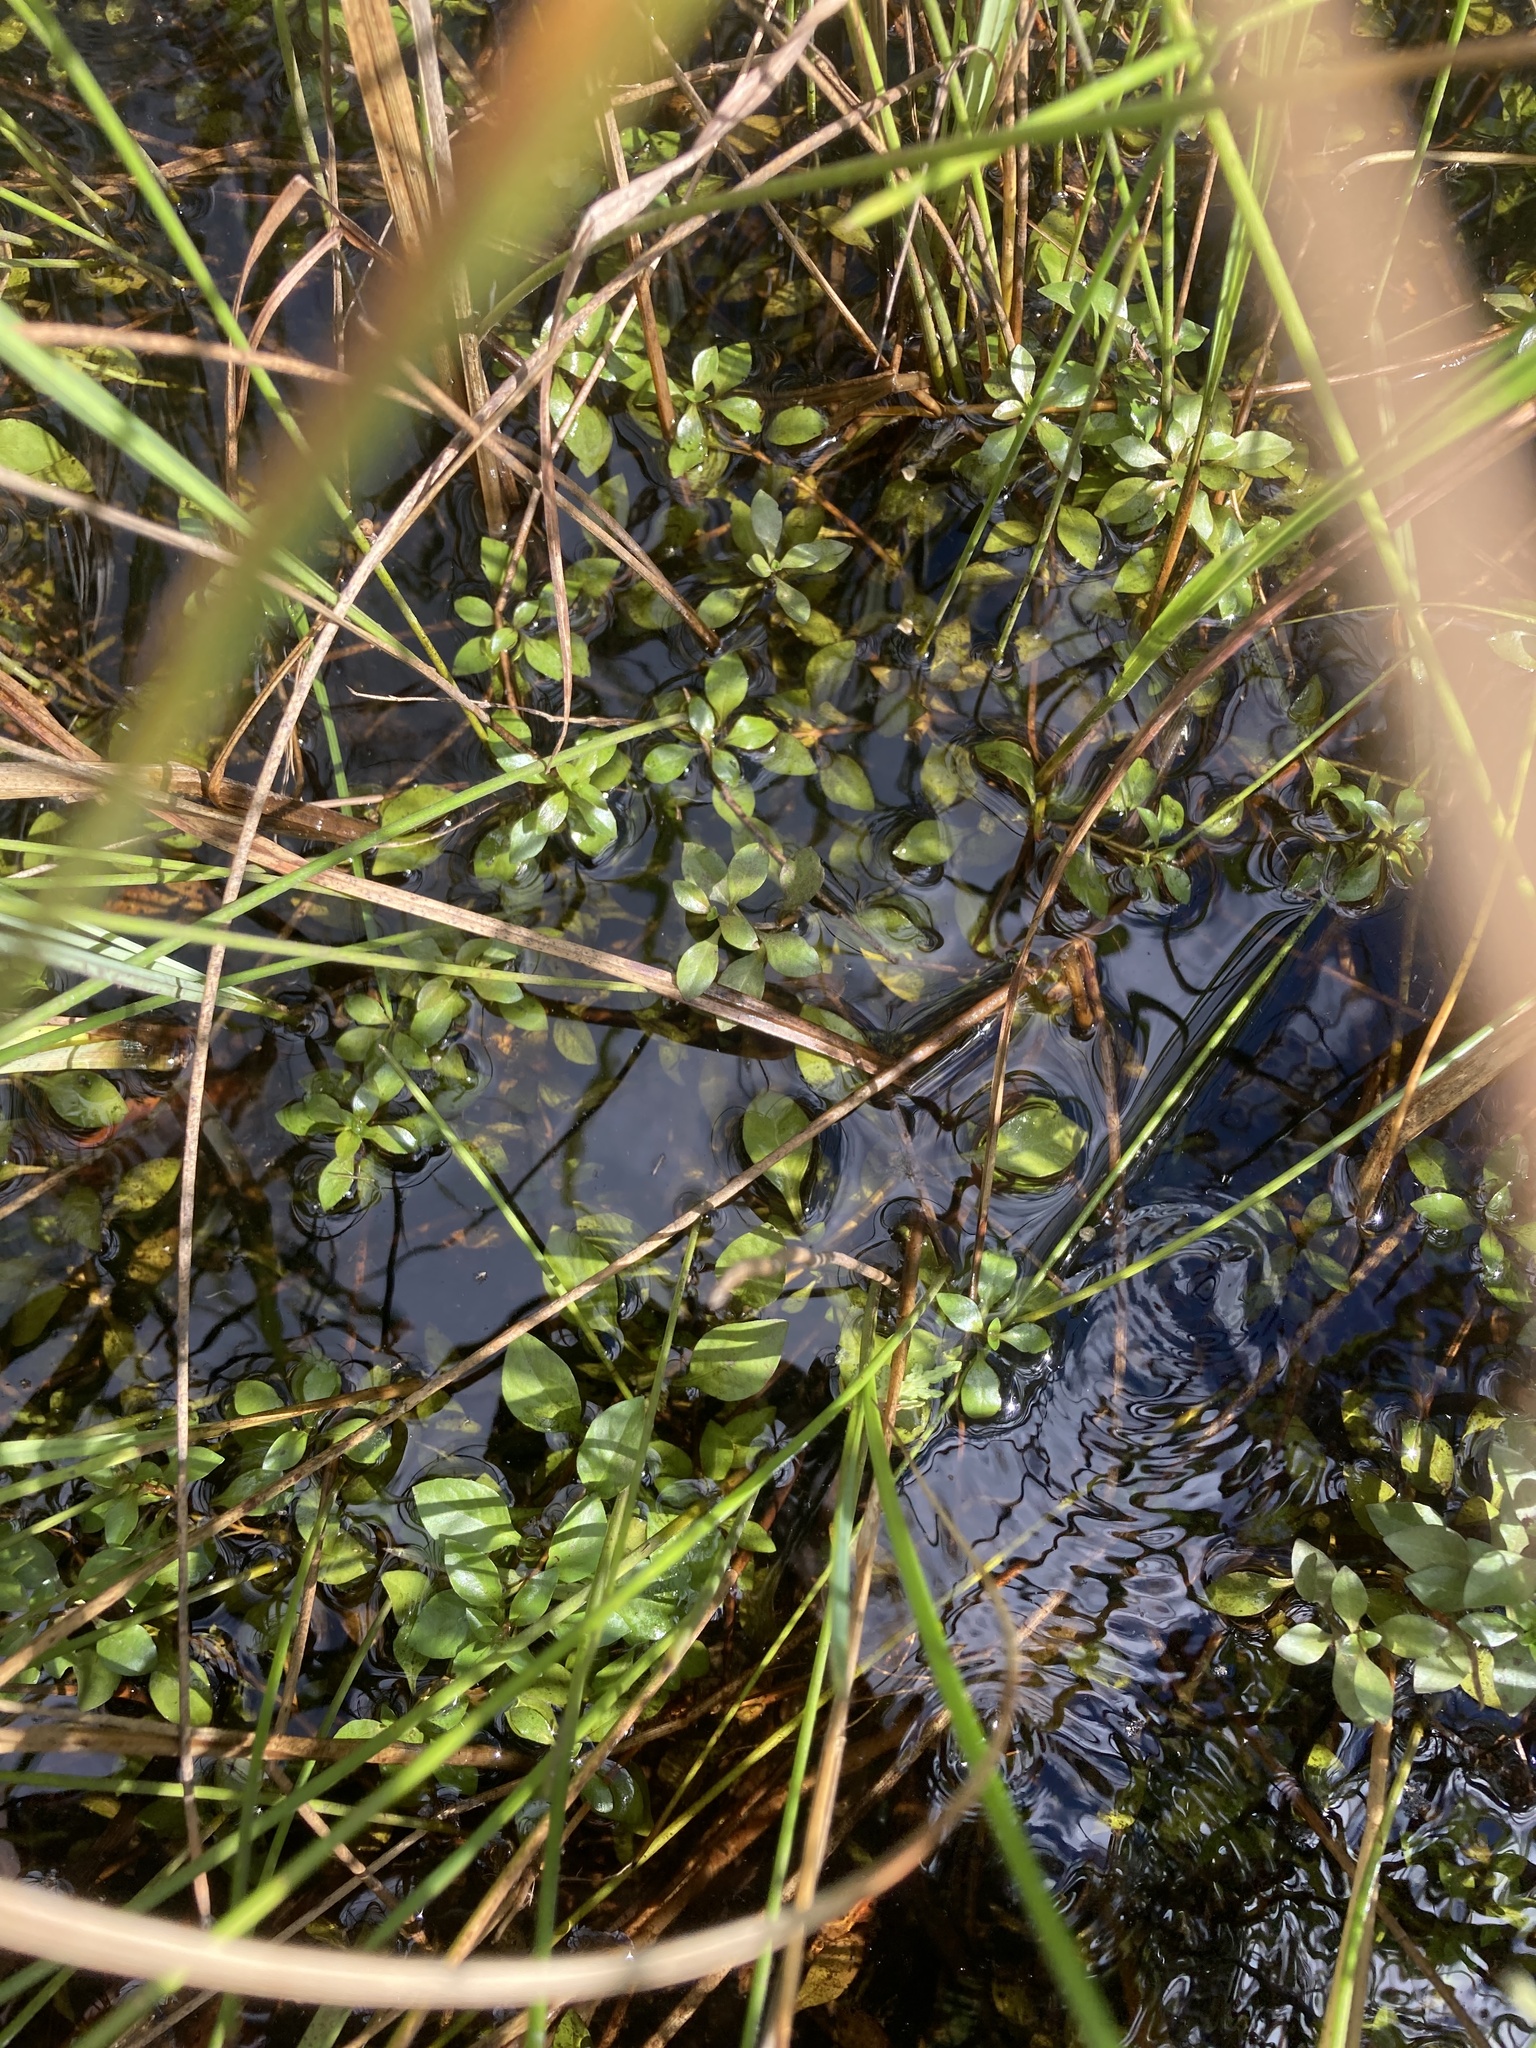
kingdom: Plantae
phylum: Tracheophyta
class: Magnoliopsida
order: Myrtales
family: Onagraceae
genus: Ludwigia
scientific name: Ludwigia palustris
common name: Hampshire-purslane
